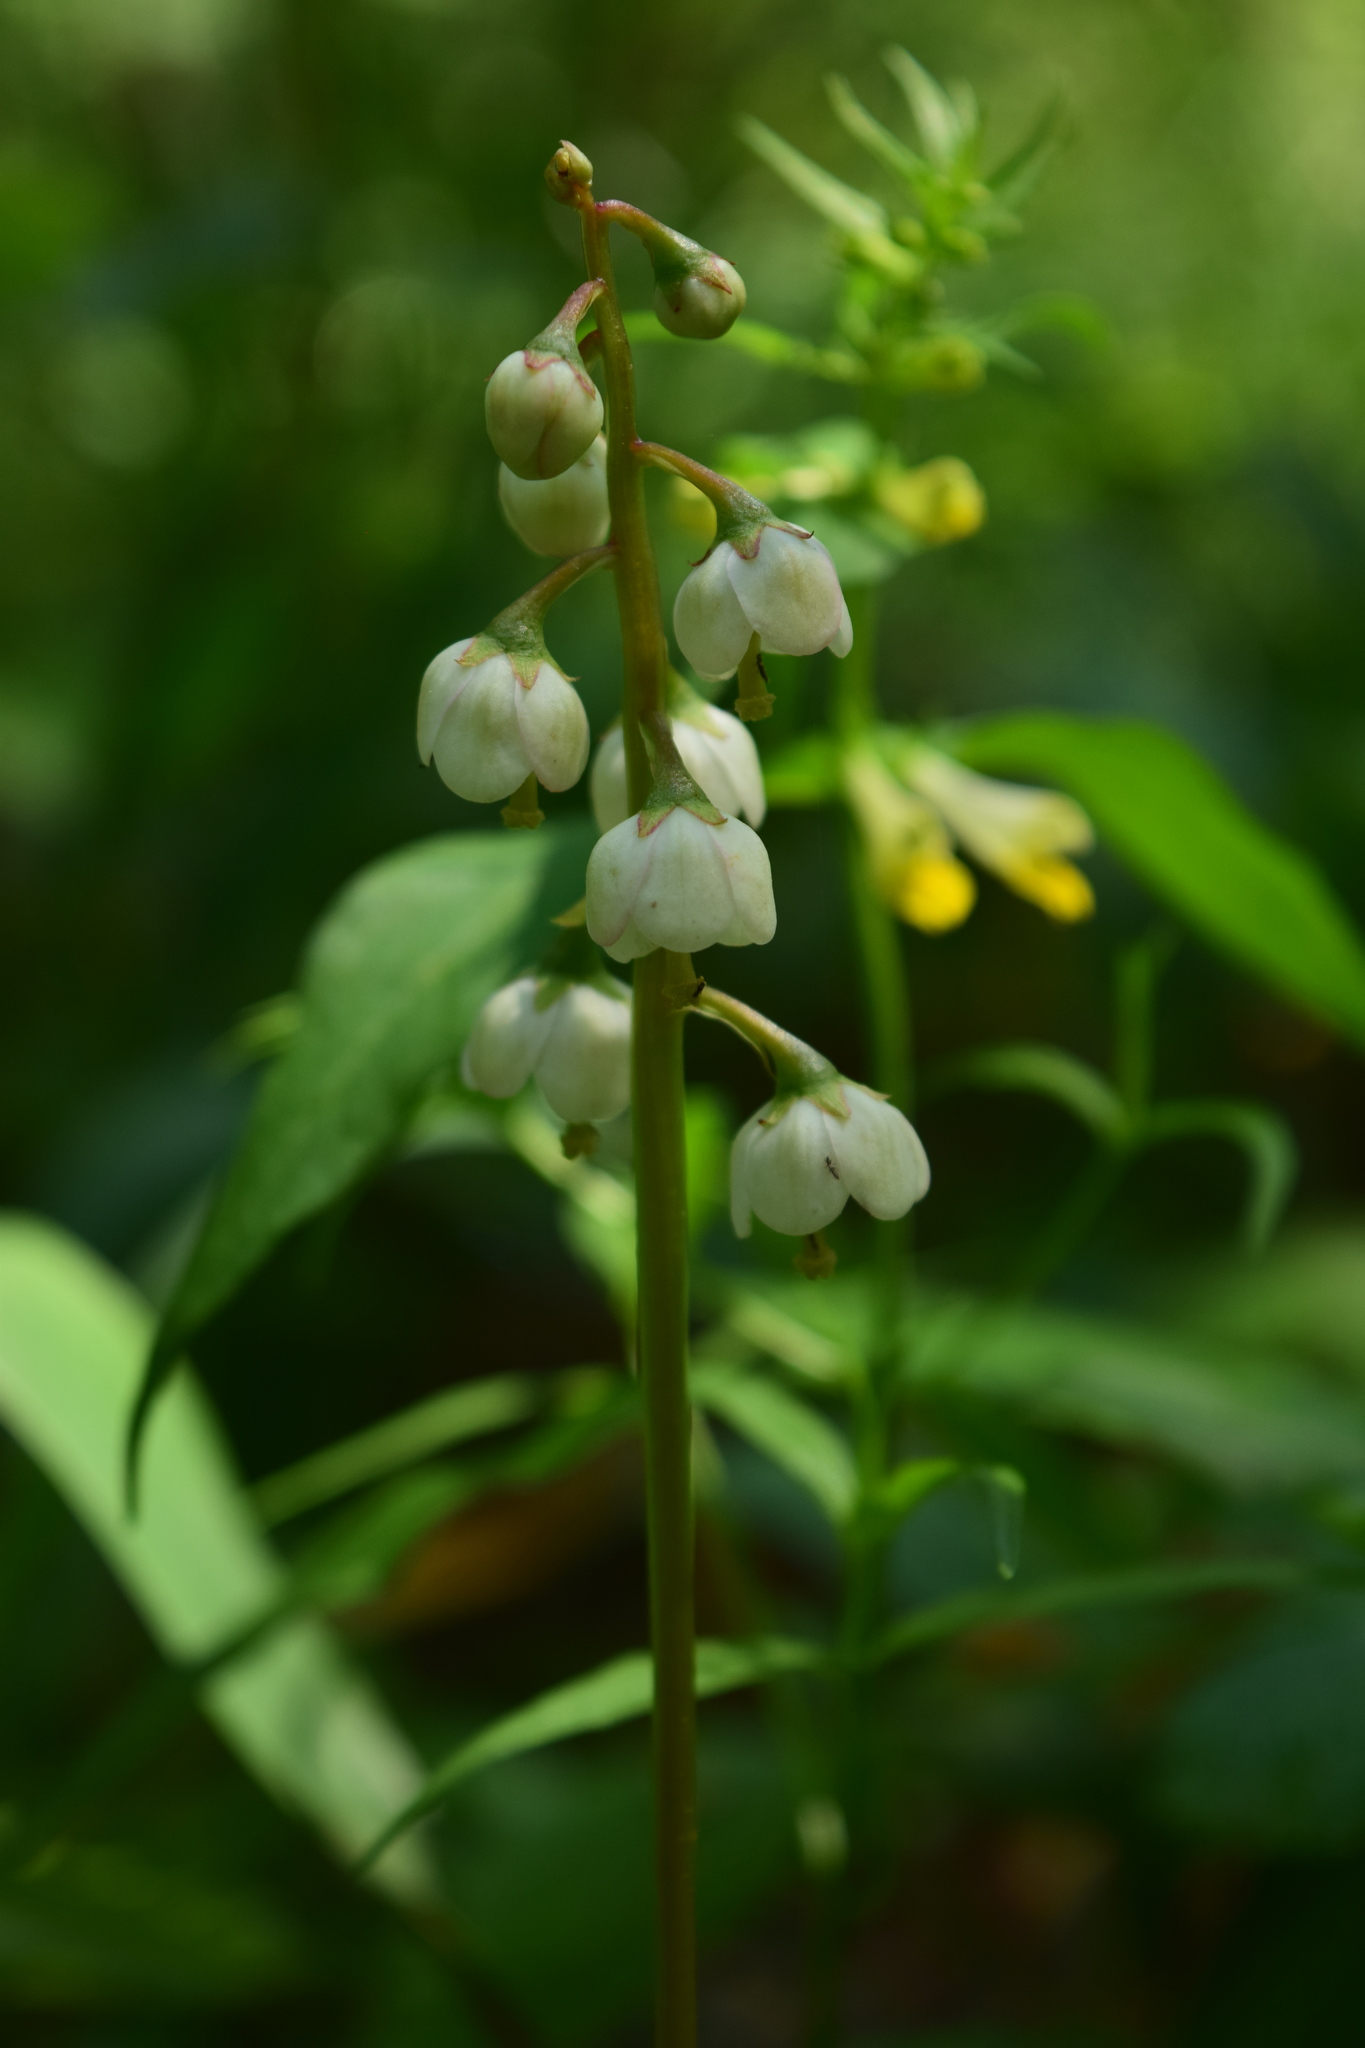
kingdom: Plantae
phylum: Tracheophyta
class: Magnoliopsida
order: Ericales
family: Ericaceae
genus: Pyrola
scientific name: Pyrola media
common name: Intermediate wintergreen
